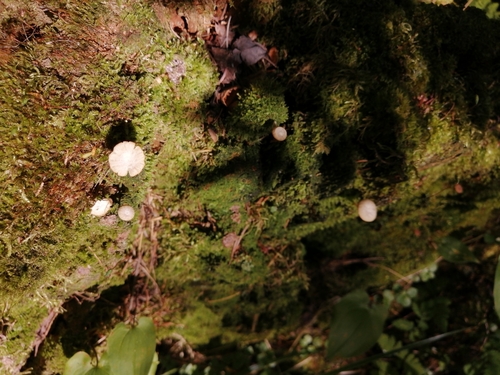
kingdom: Fungi
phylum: Basidiomycota
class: Agaricomycetes
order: Agaricales
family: Hygrophoraceae
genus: Lichenomphalia
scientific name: Lichenomphalia umbellifera
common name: Heath navel
